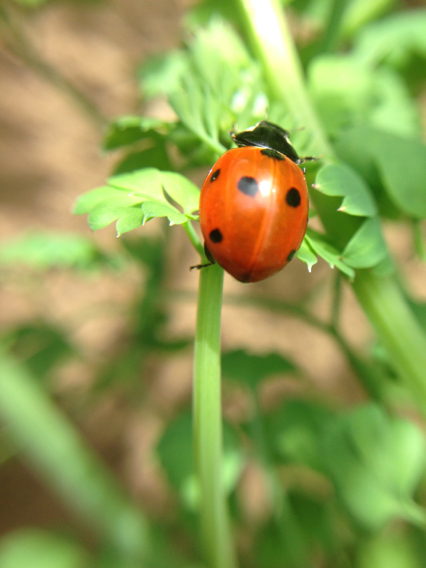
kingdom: Animalia
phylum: Arthropoda
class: Insecta
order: Coleoptera
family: Coccinellidae
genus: Coccinella
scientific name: Coccinella septempunctata
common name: Sevenspotted lady beetle
